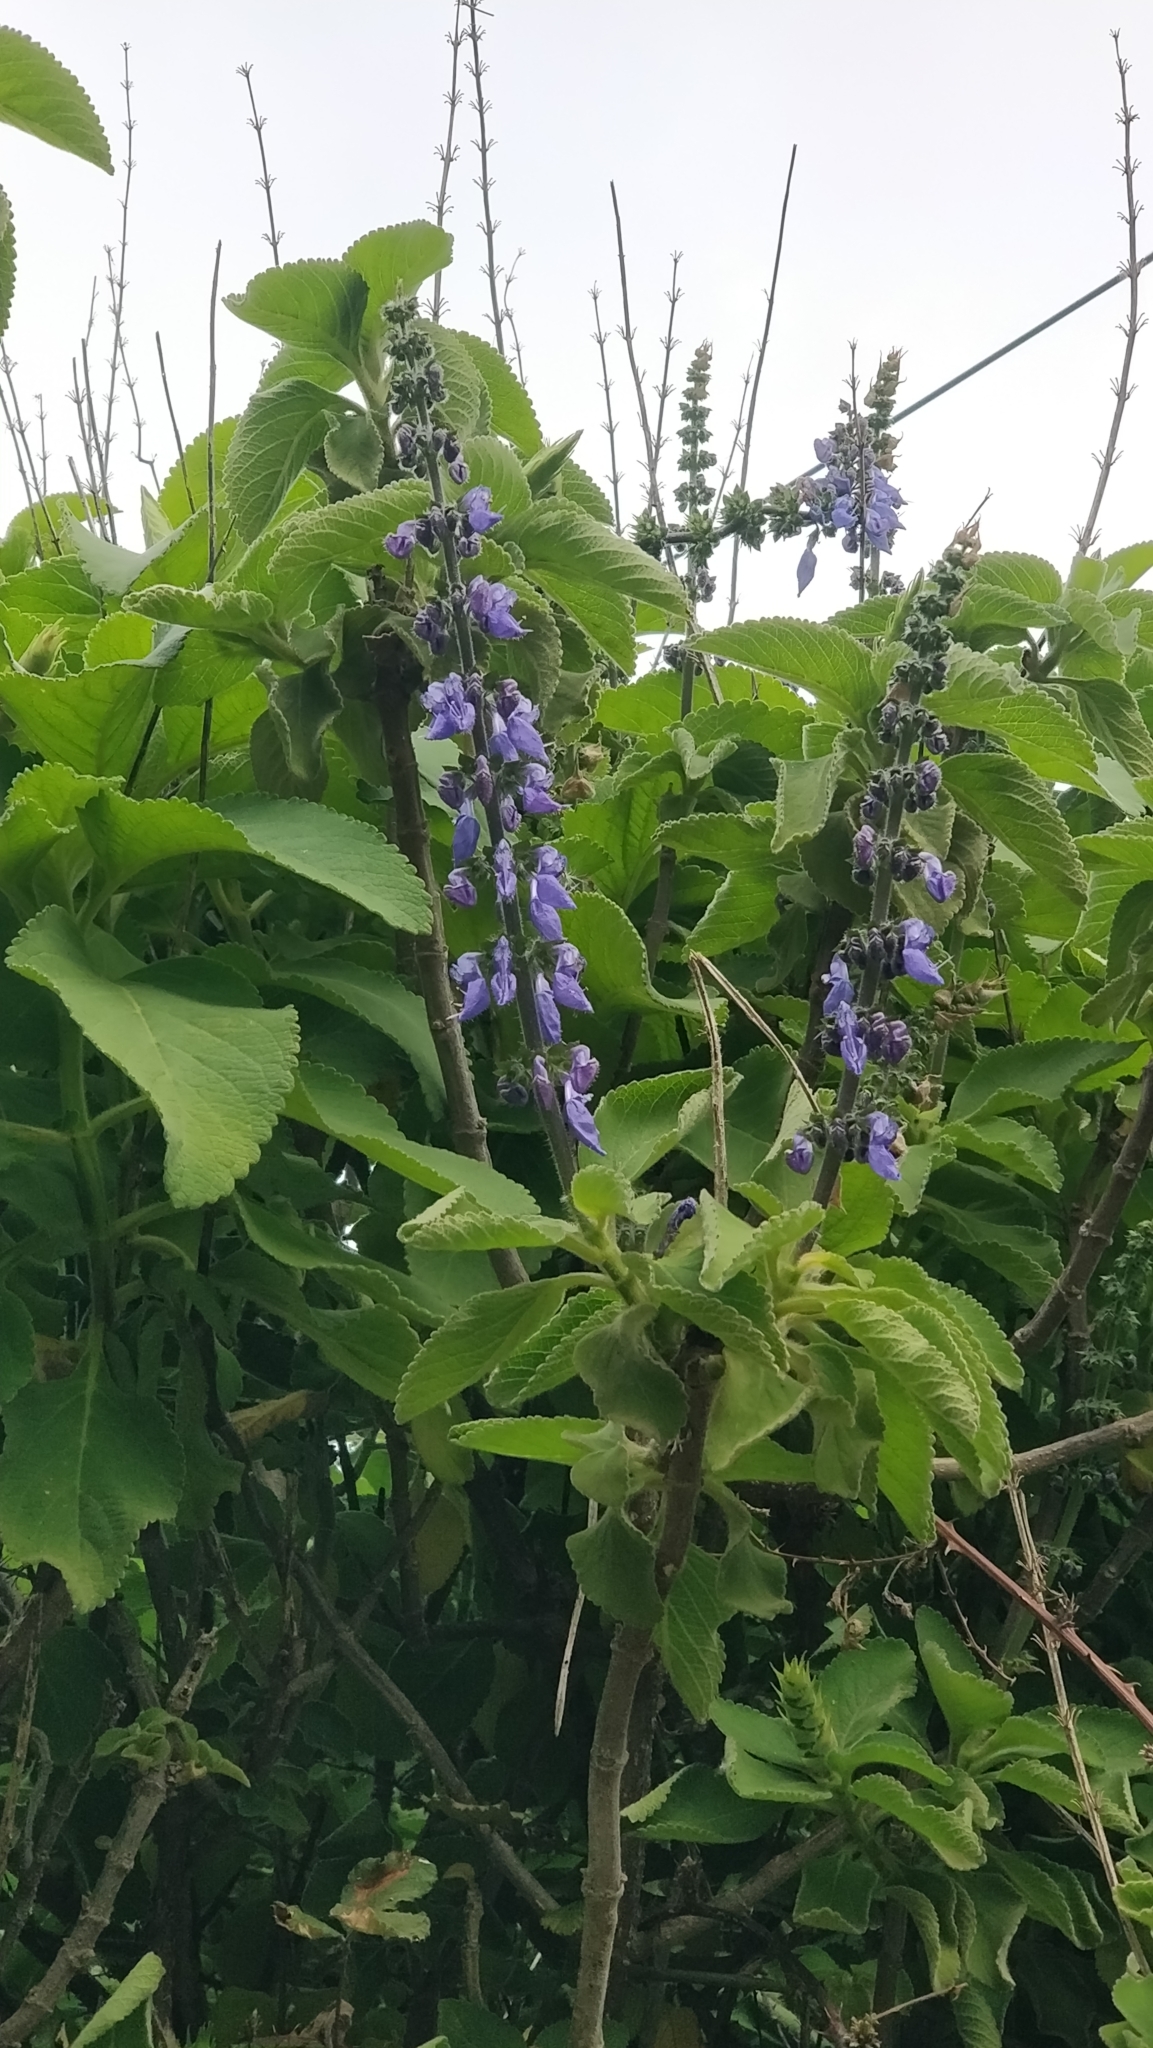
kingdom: Plantae
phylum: Tracheophyta
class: Magnoliopsida
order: Lamiales
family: Lamiaceae
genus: Coleus
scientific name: Coleus barbatus
